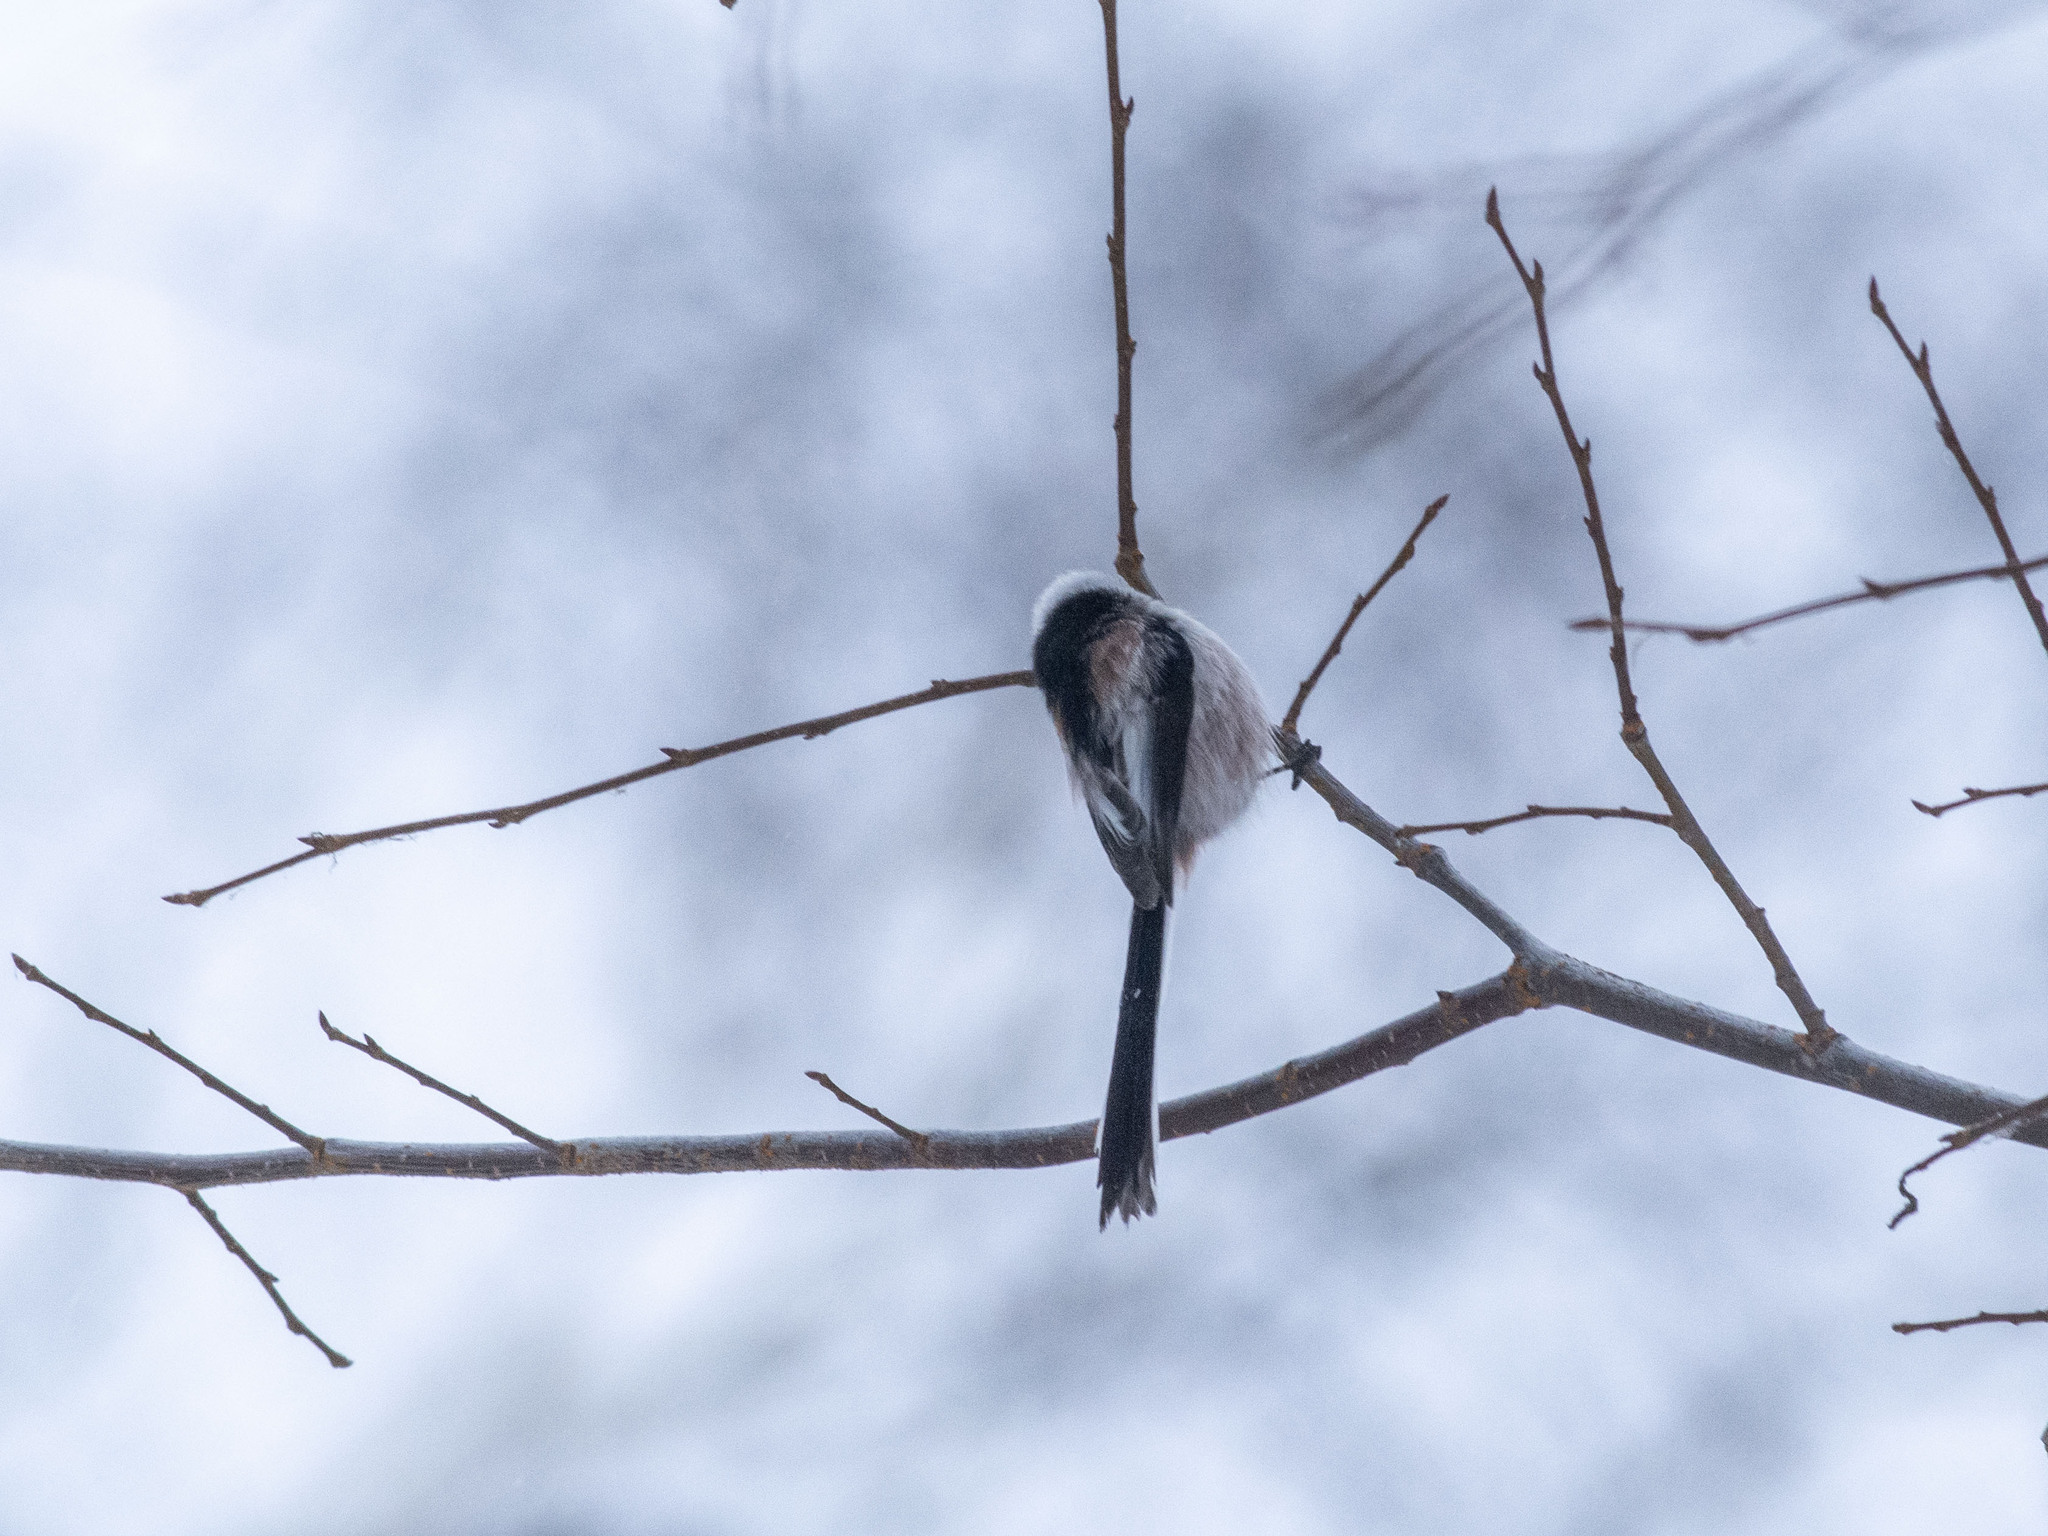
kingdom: Animalia
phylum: Chordata
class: Aves
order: Passeriformes
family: Aegithalidae
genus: Aegithalos
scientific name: Aegithalos caudatus
